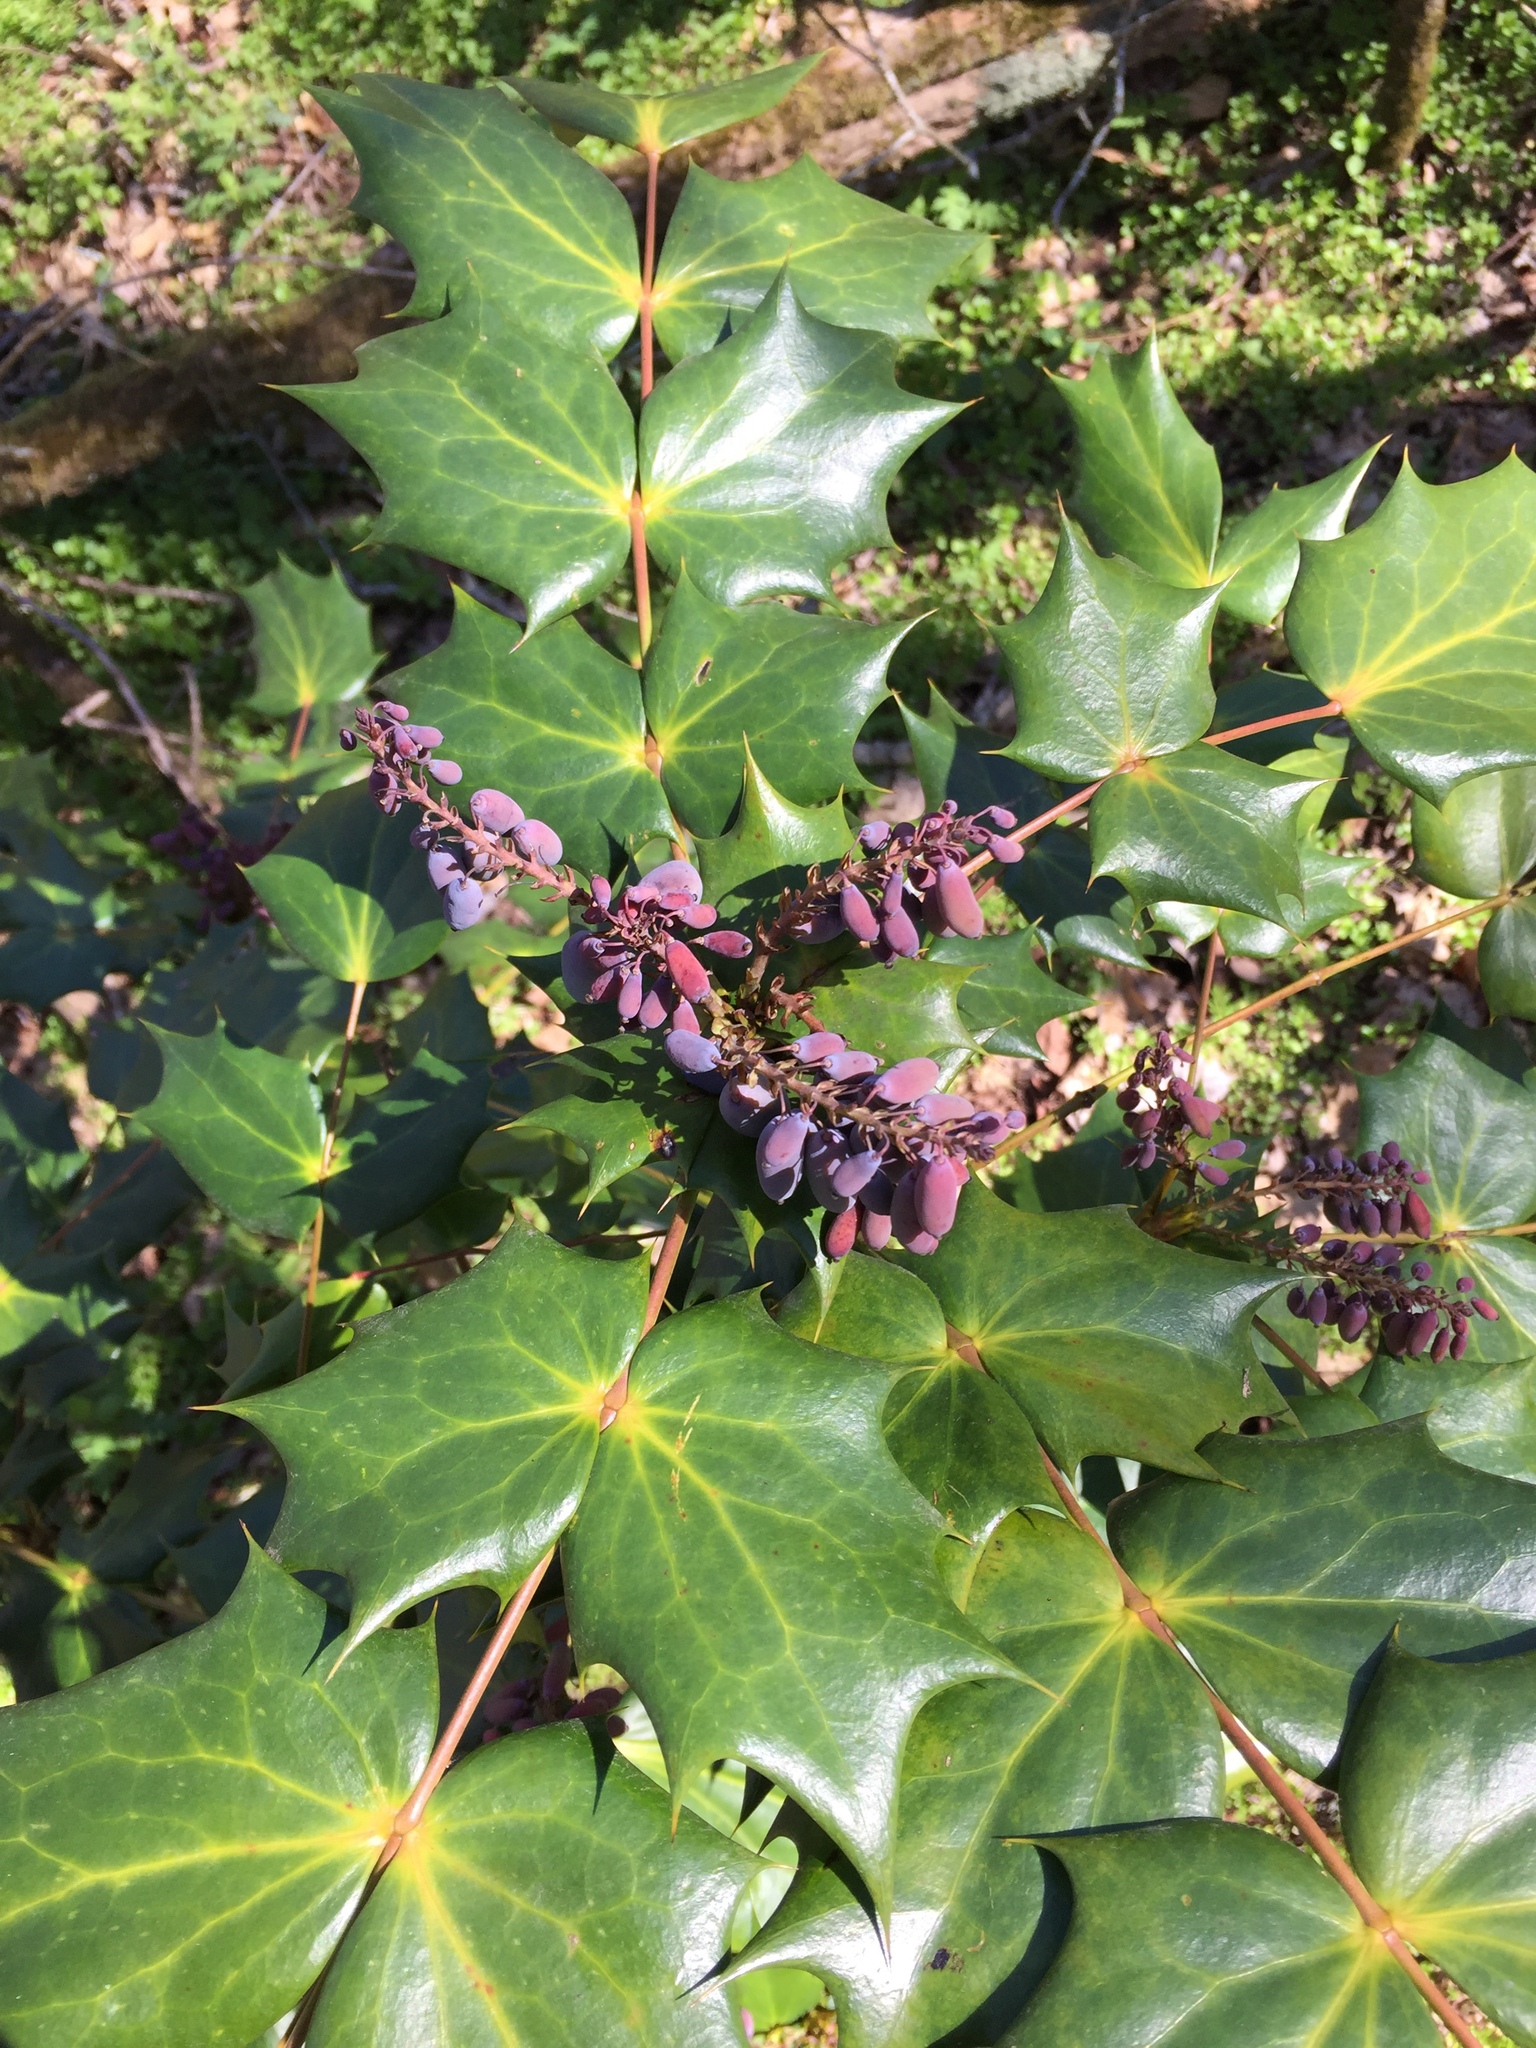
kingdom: Plantae
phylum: Tracheophyta
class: Magnoliopsida
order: Ranunculales
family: Berberidaceae
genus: Mahonia
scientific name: Mahonia bealei
